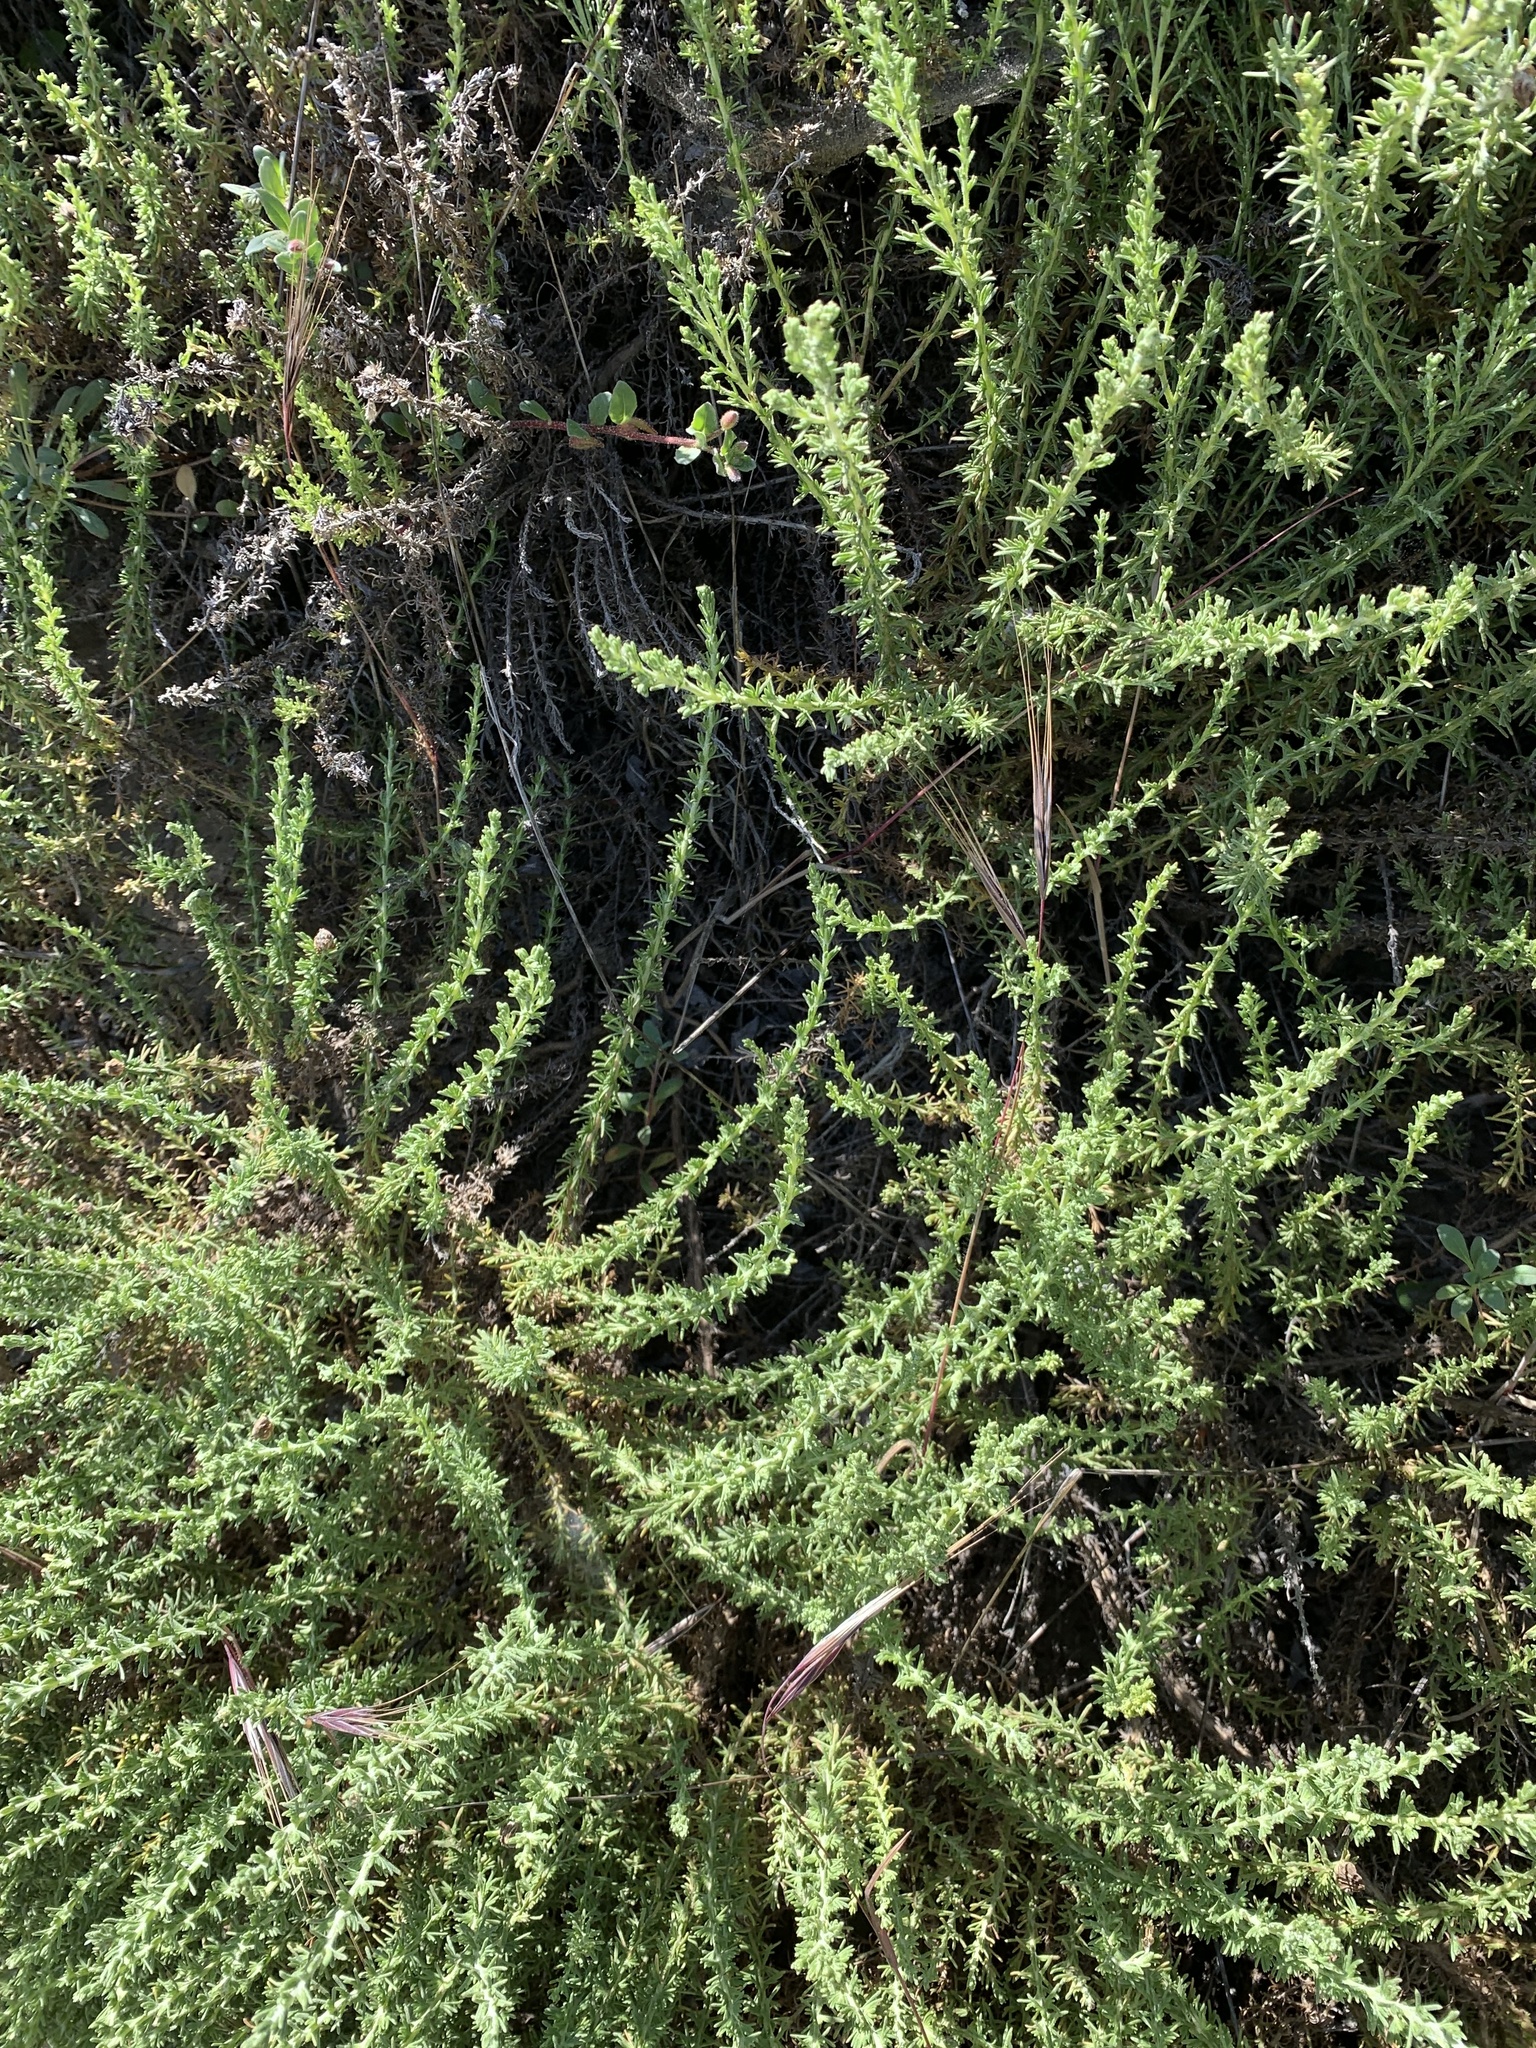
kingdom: Plantae
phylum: Tracheophyta
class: Magnoliopsida
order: Asterales
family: Asteraceae
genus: Ericameria
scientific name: Ericameria ericoides
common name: California goldenbush
